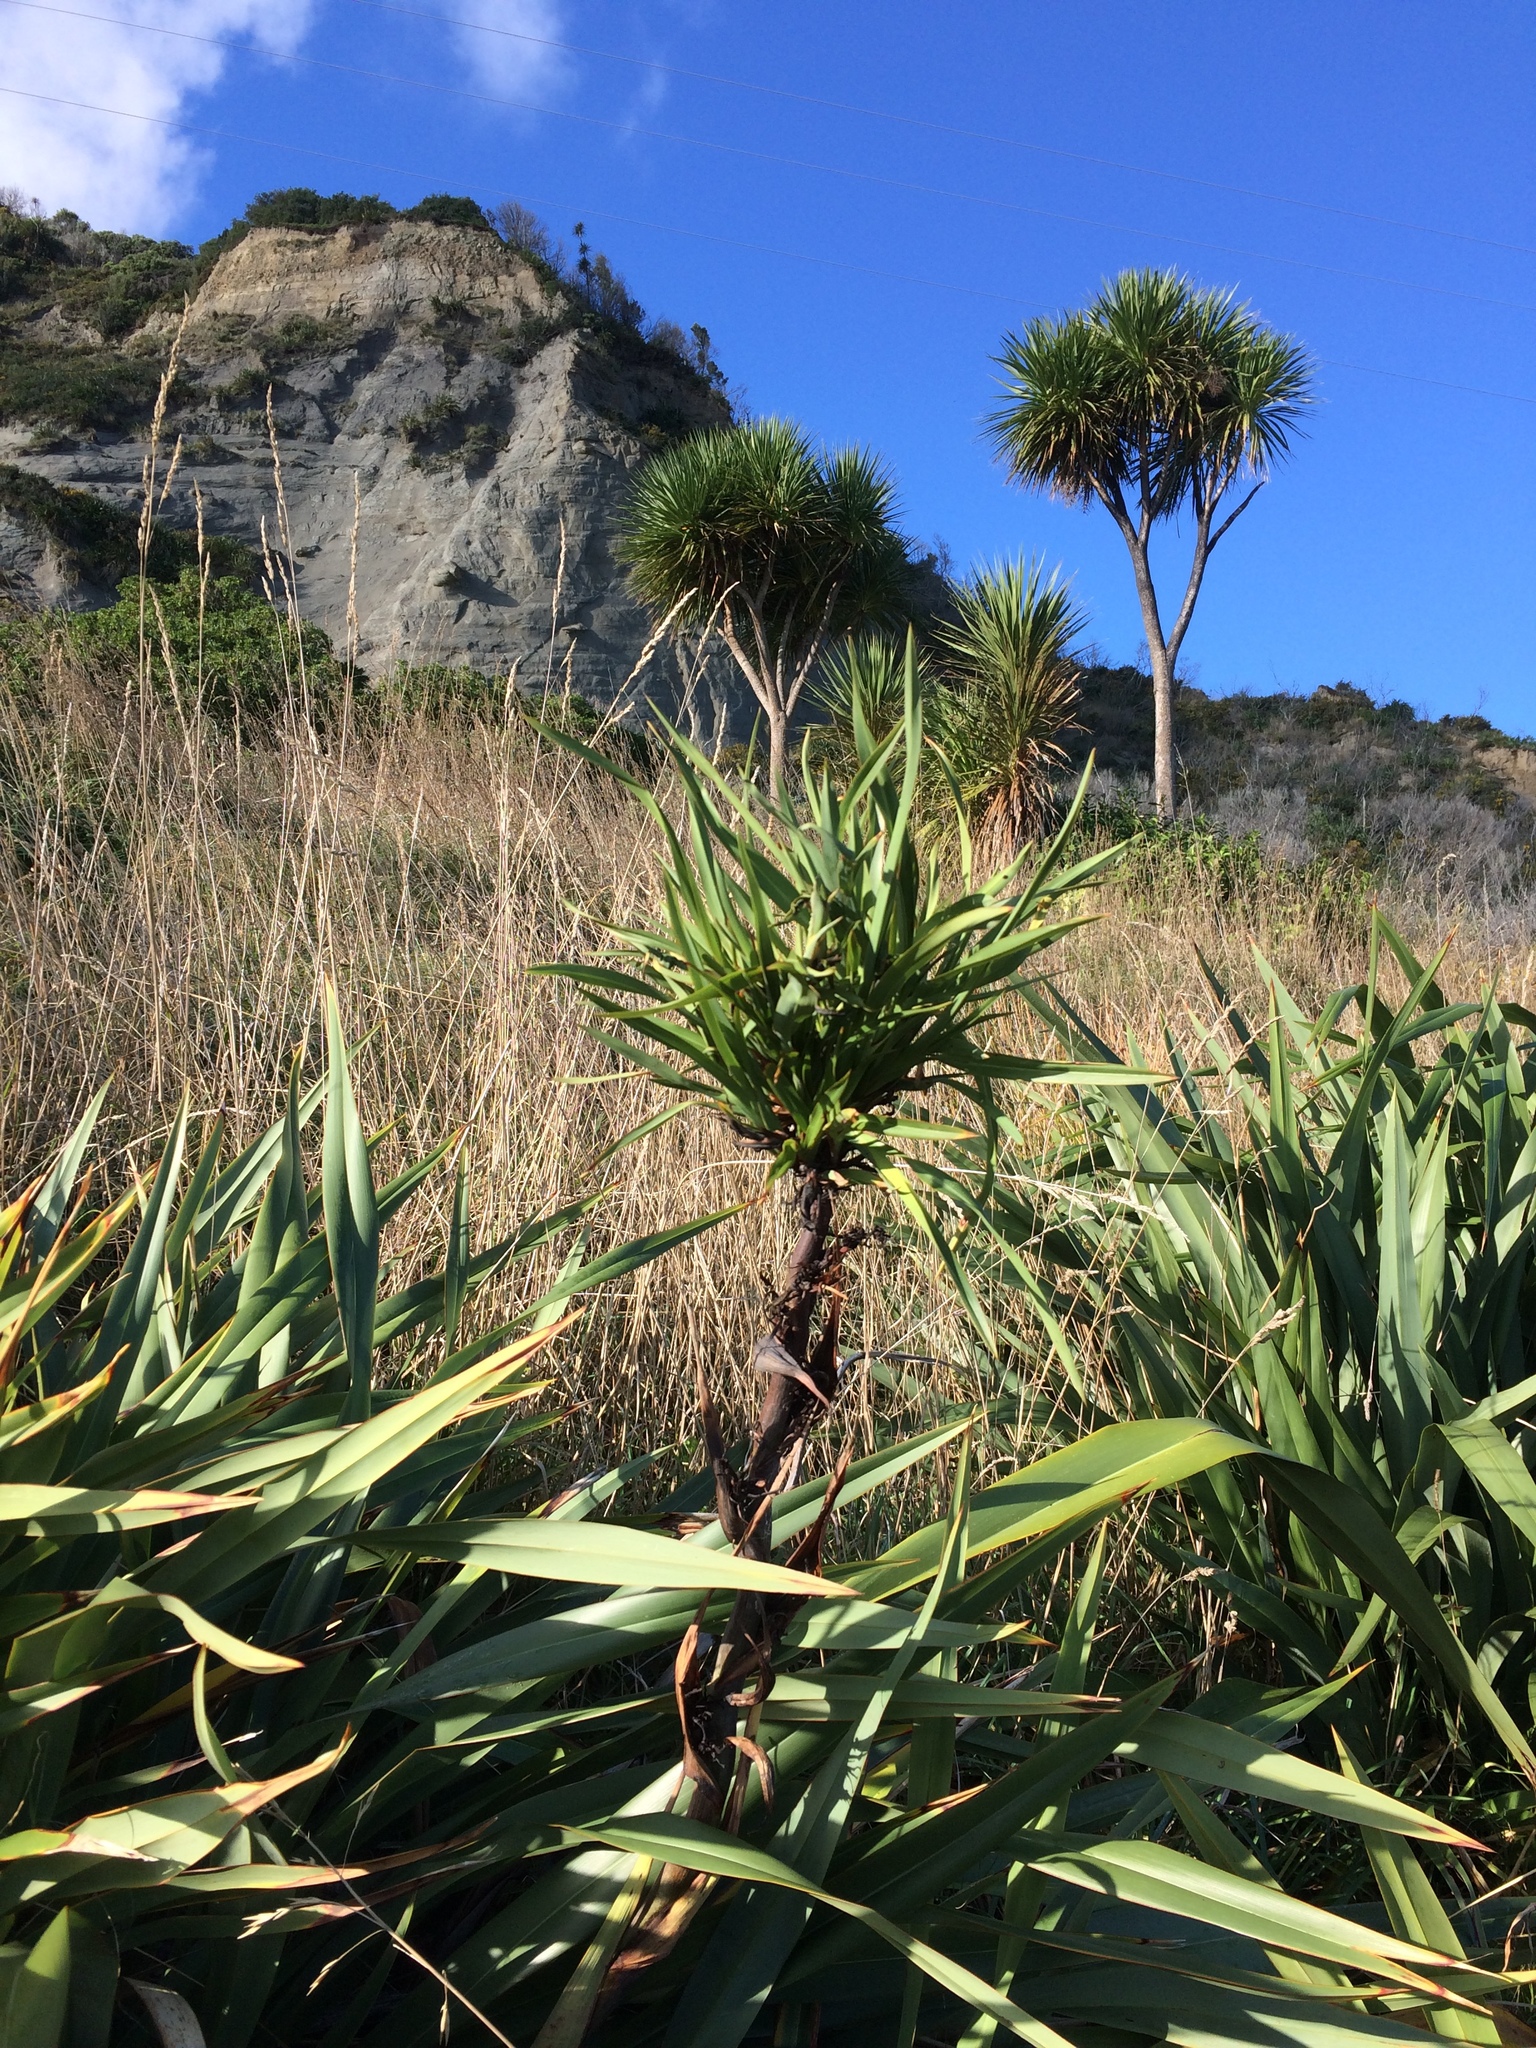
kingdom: Plantae
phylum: Tracheophyta
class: Liliopsida
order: Asparagales
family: Asphodelaceae
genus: Phormium
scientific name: Phormium colensoi
